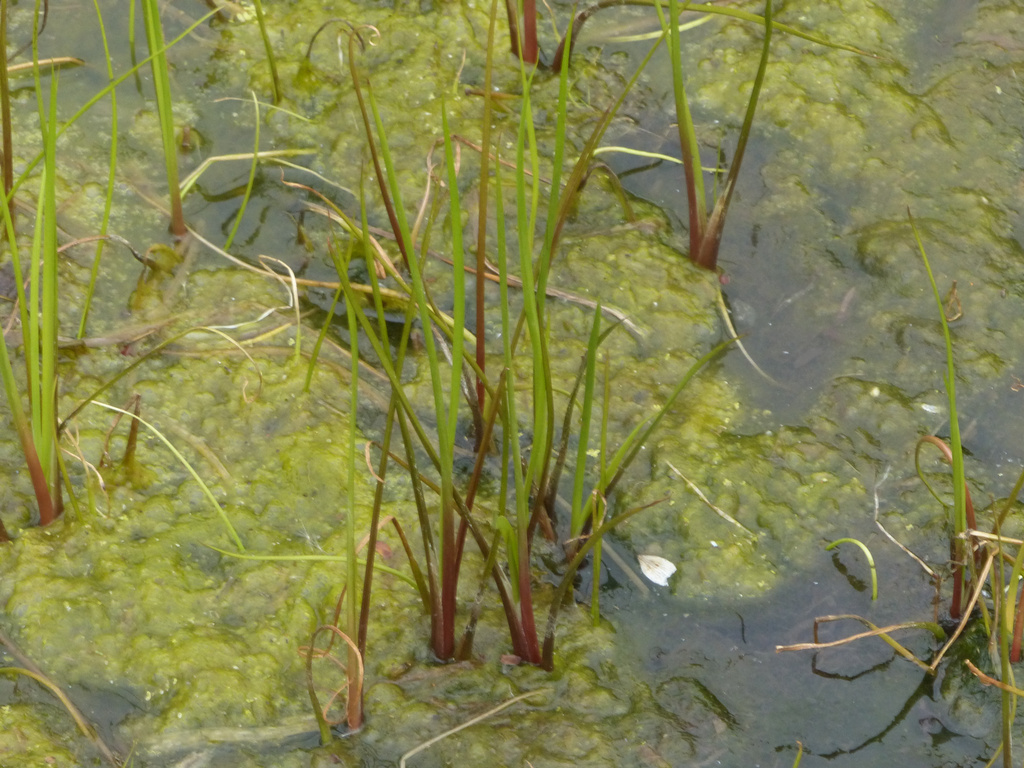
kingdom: Plantae
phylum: Tracheophyta
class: Liliopsida
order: Alismatales
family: Butomaceae
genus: Butomus
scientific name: Butomus umbellatus
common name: Flowering-rush
